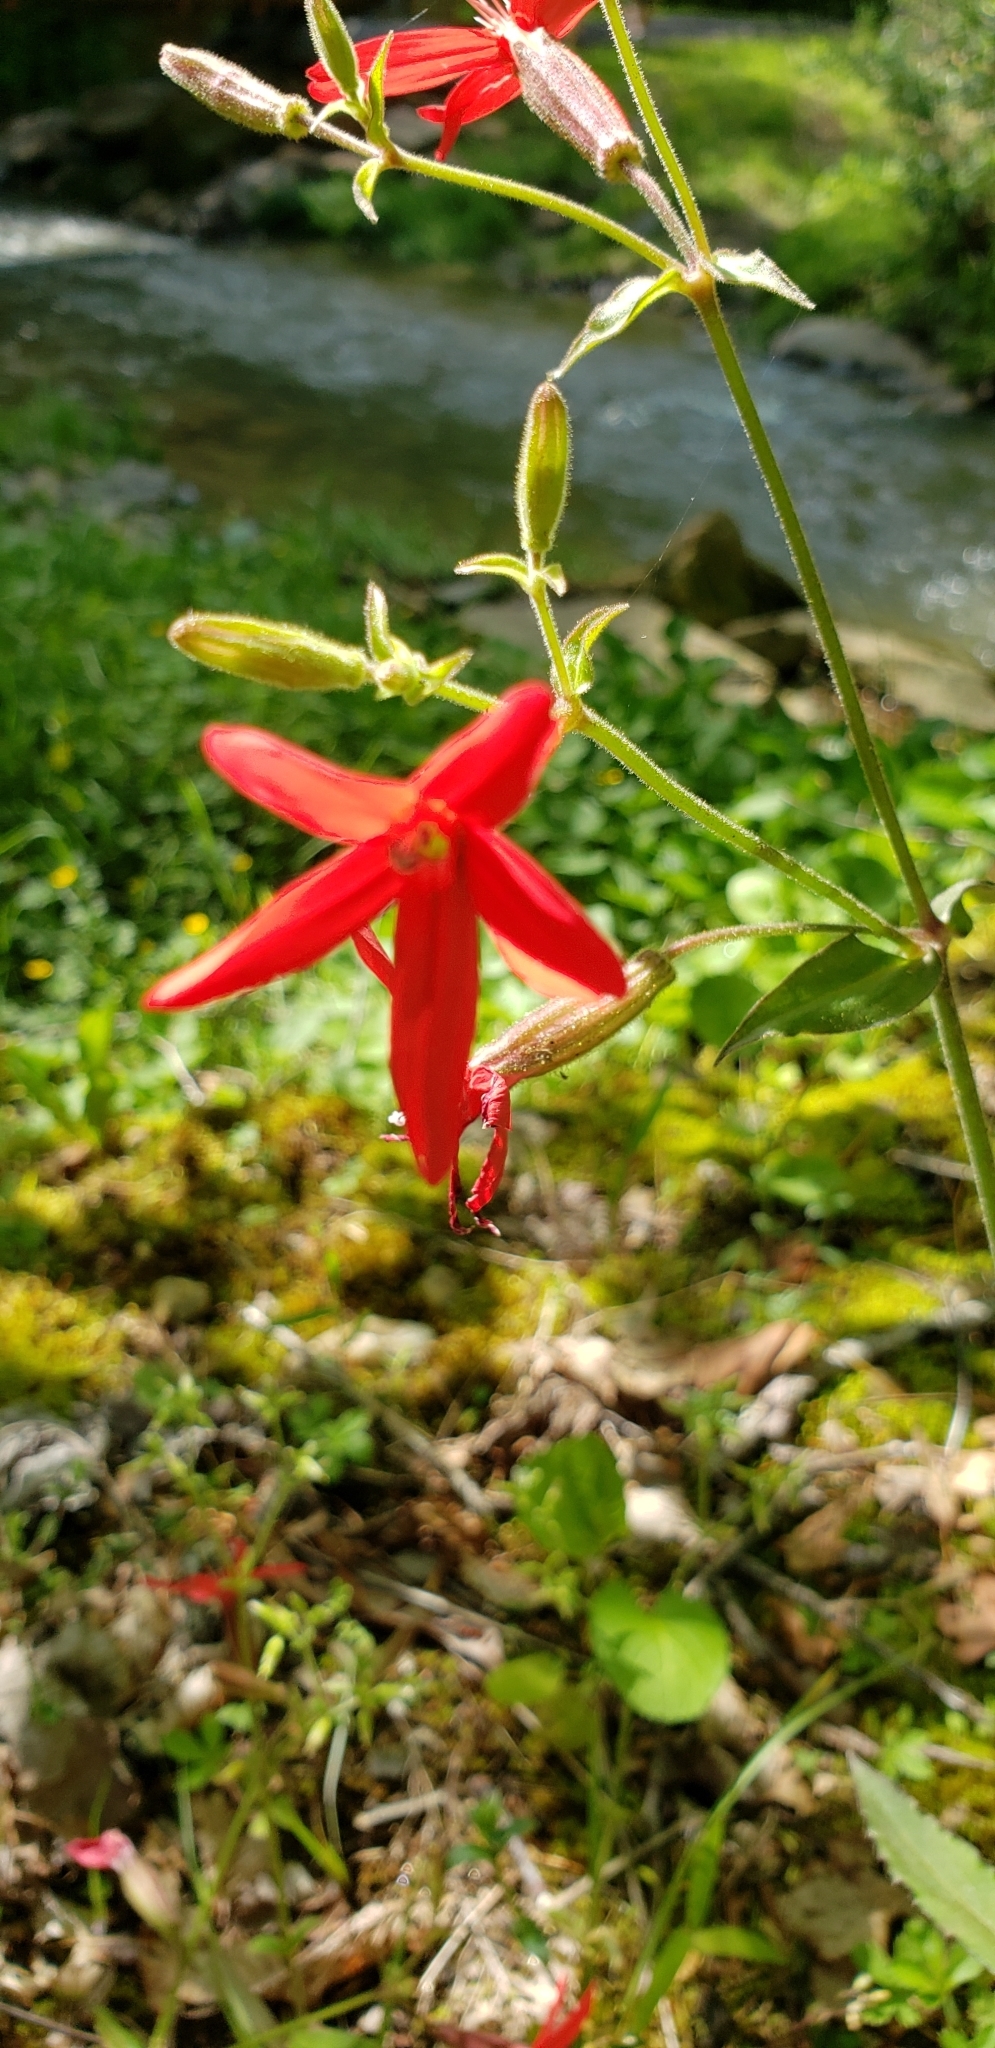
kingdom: Plantae
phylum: Tracheophyta
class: Magnoliopsida
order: Caryophyllales
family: Caryophyllaceae
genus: Silene
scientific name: Silene virginica
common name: Fire-pink
